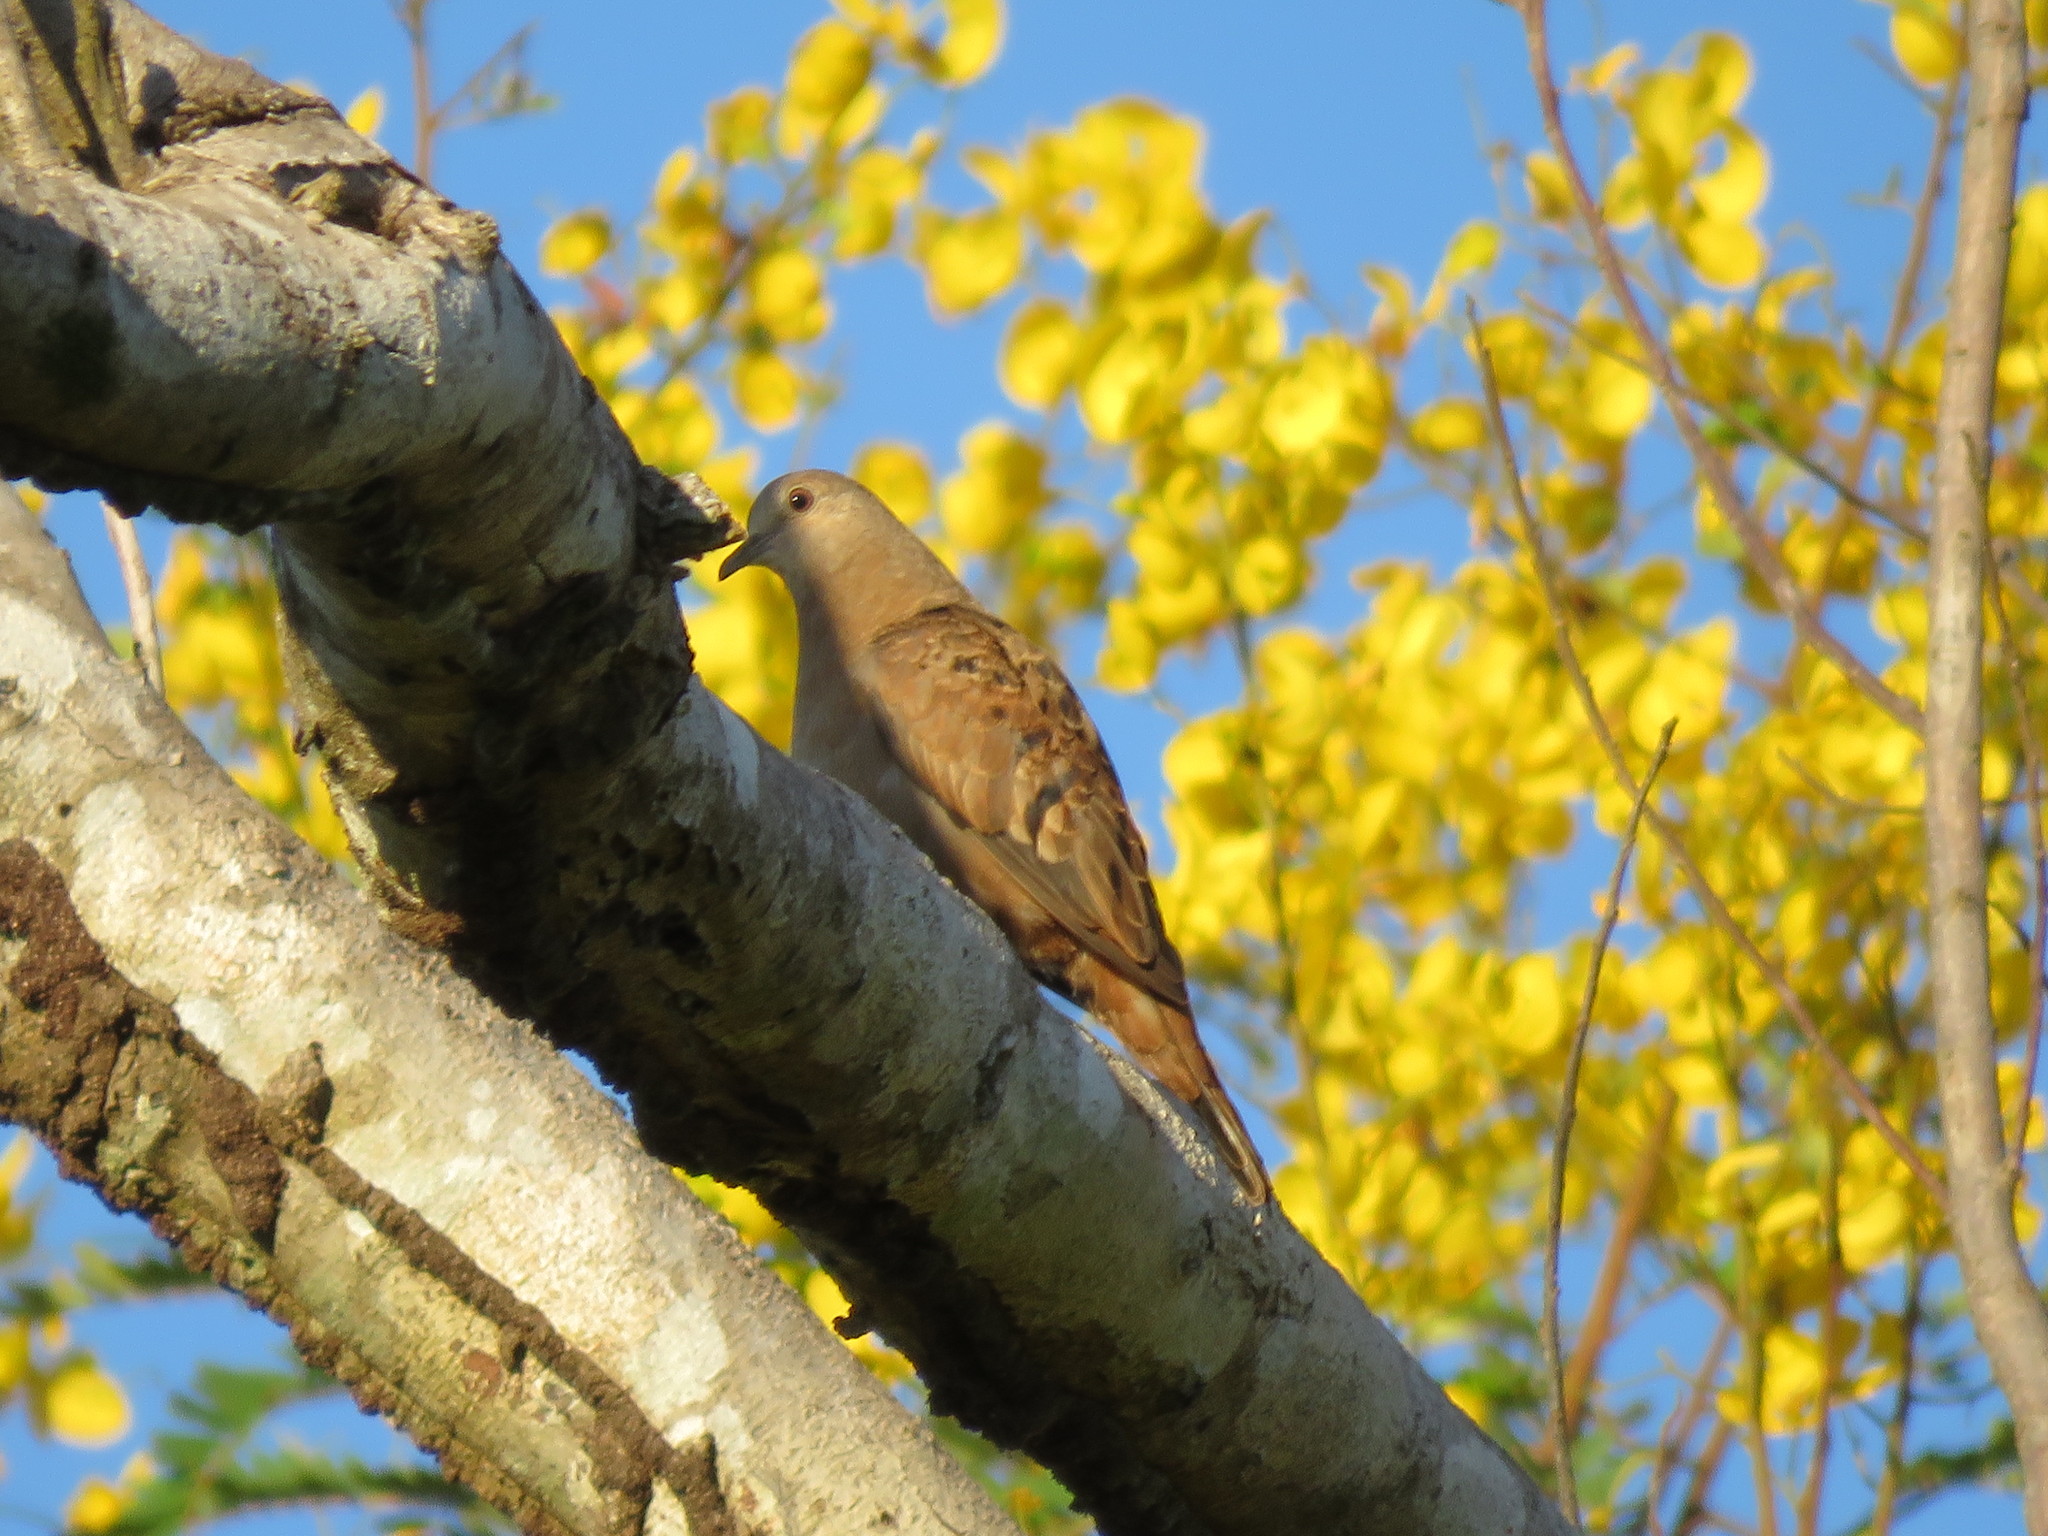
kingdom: Animalia
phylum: Chordata
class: Aves
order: Columbiformes
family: Columbidae
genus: Columbina
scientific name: Columbina talpacoti
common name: Ruddy ground dove
